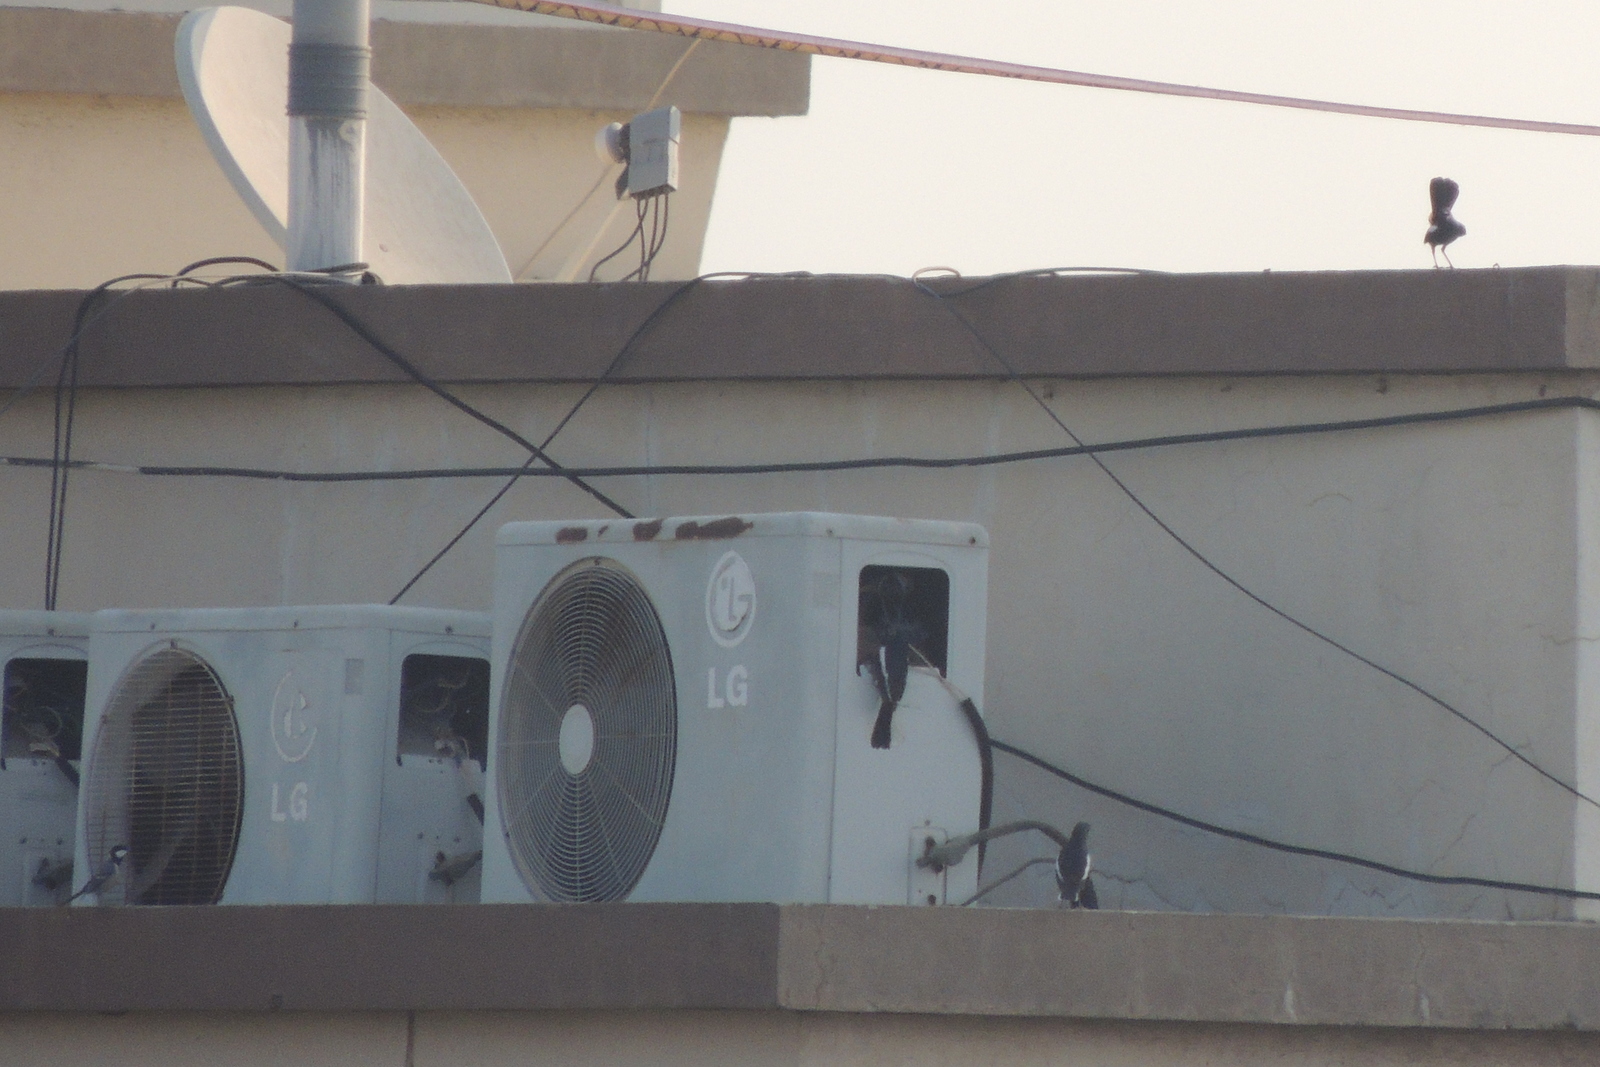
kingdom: Animalia
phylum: Chordata
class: Aves
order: Passeriformes
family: Muscicapidae
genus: Saxicoloides
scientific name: Saxicoloides fulicatus
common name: Indian robin
